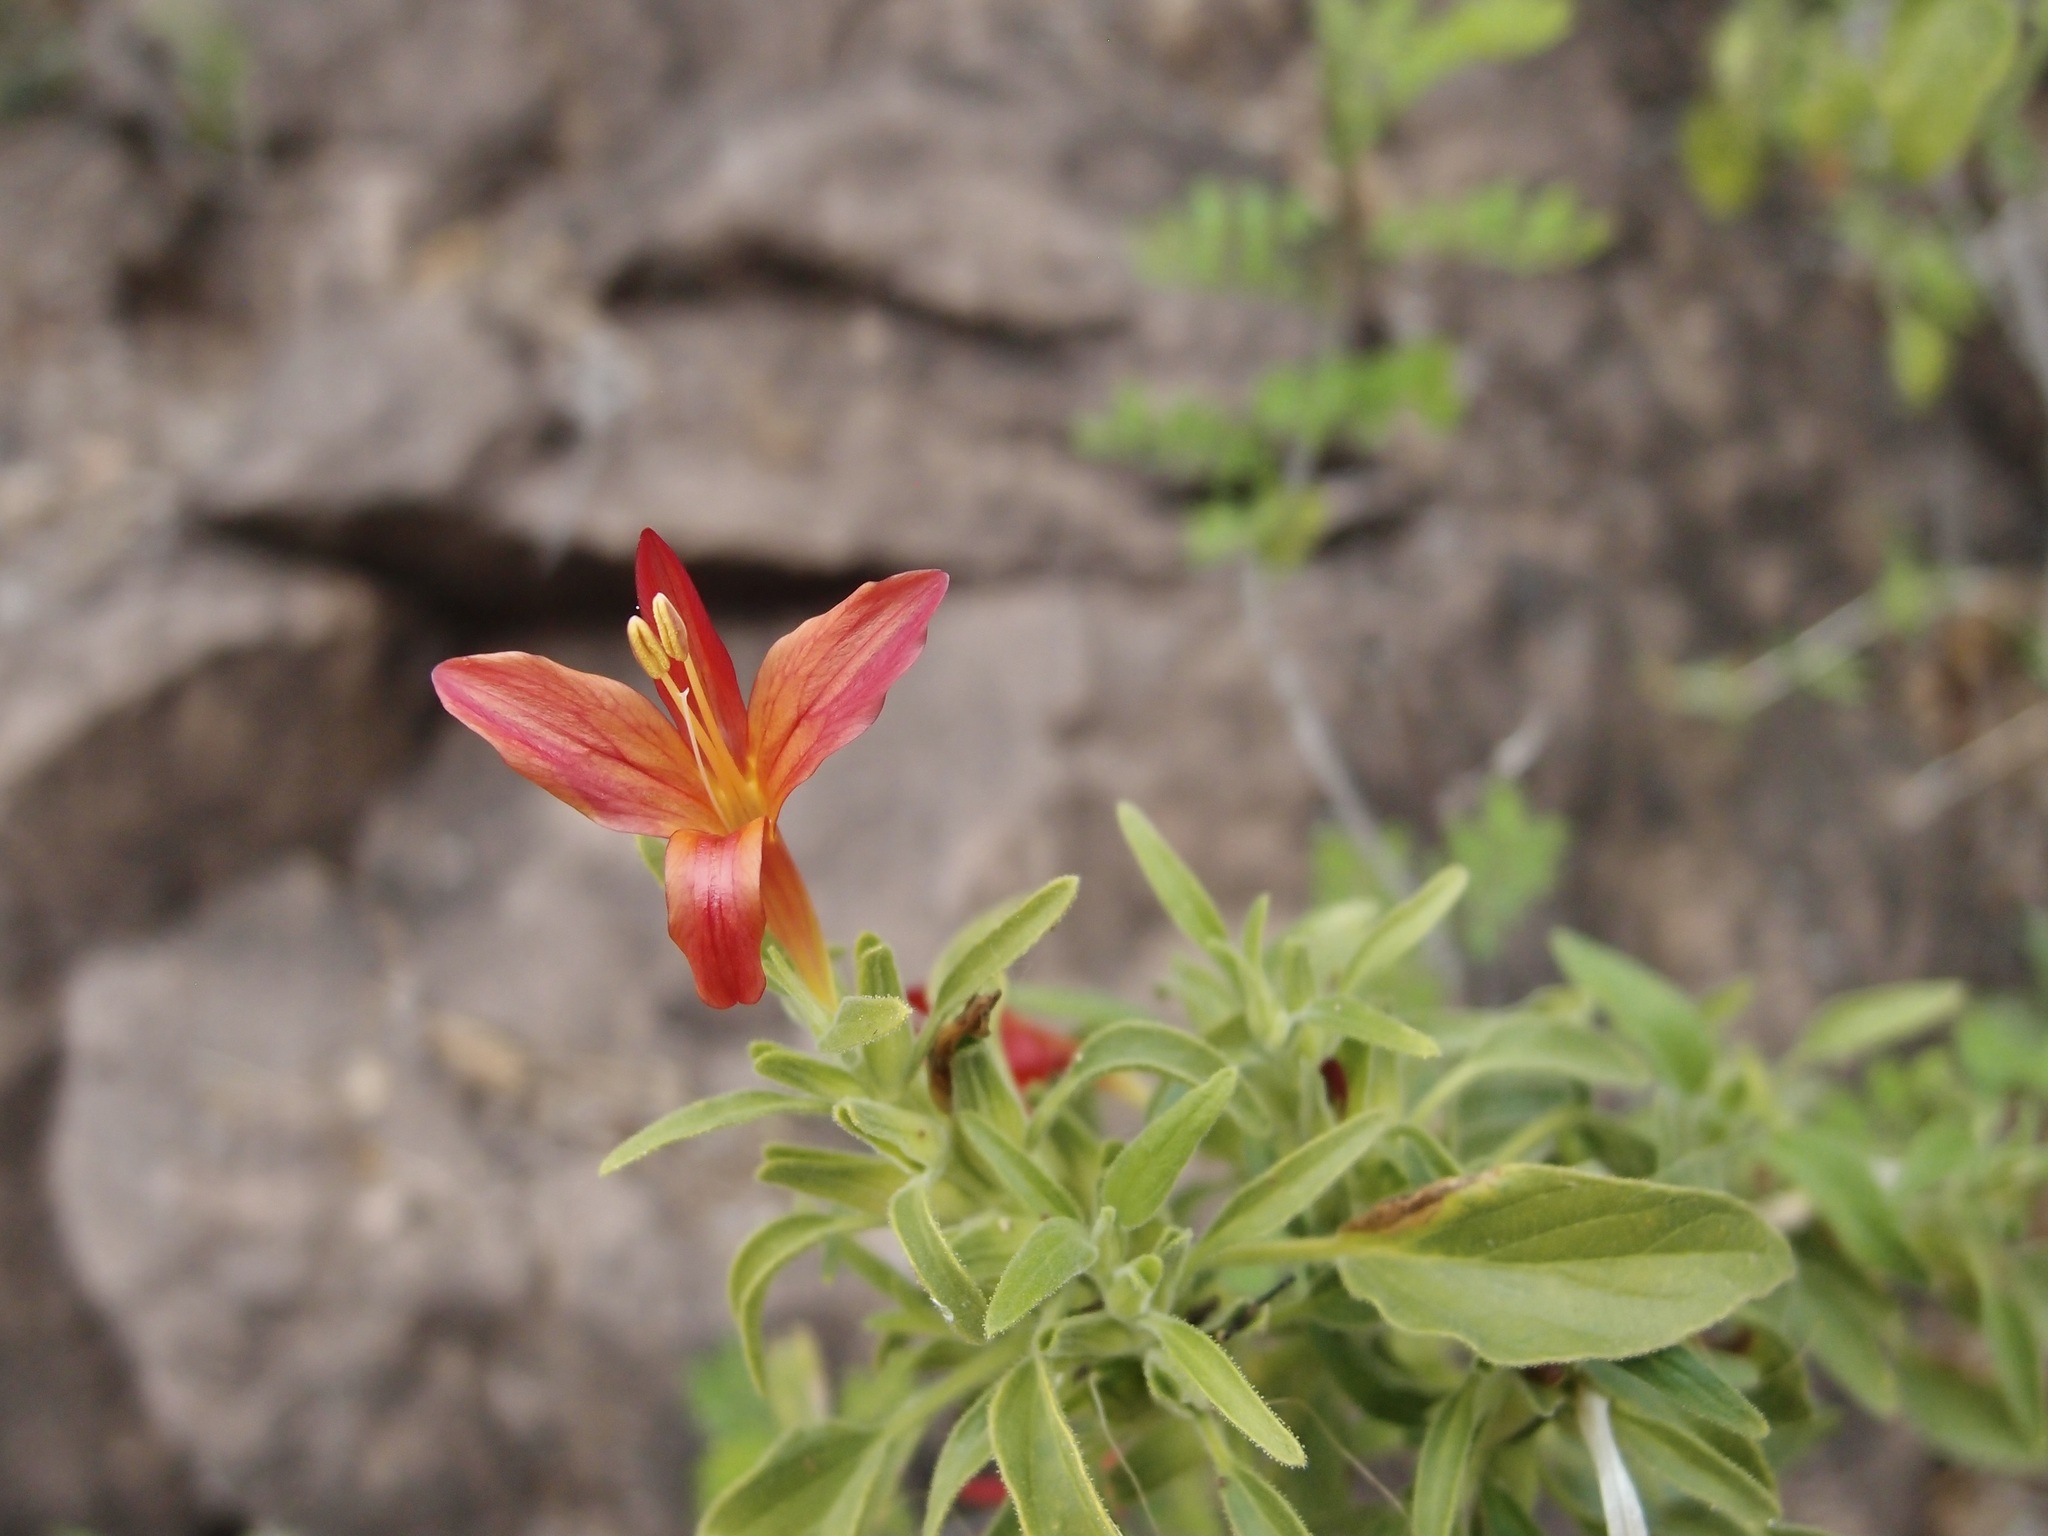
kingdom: Plantae
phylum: Tracheophyta
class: Magnoliopsida
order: Lamiales
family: Acanthaceae
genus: Tetramerium
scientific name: Tetramerium abditum
